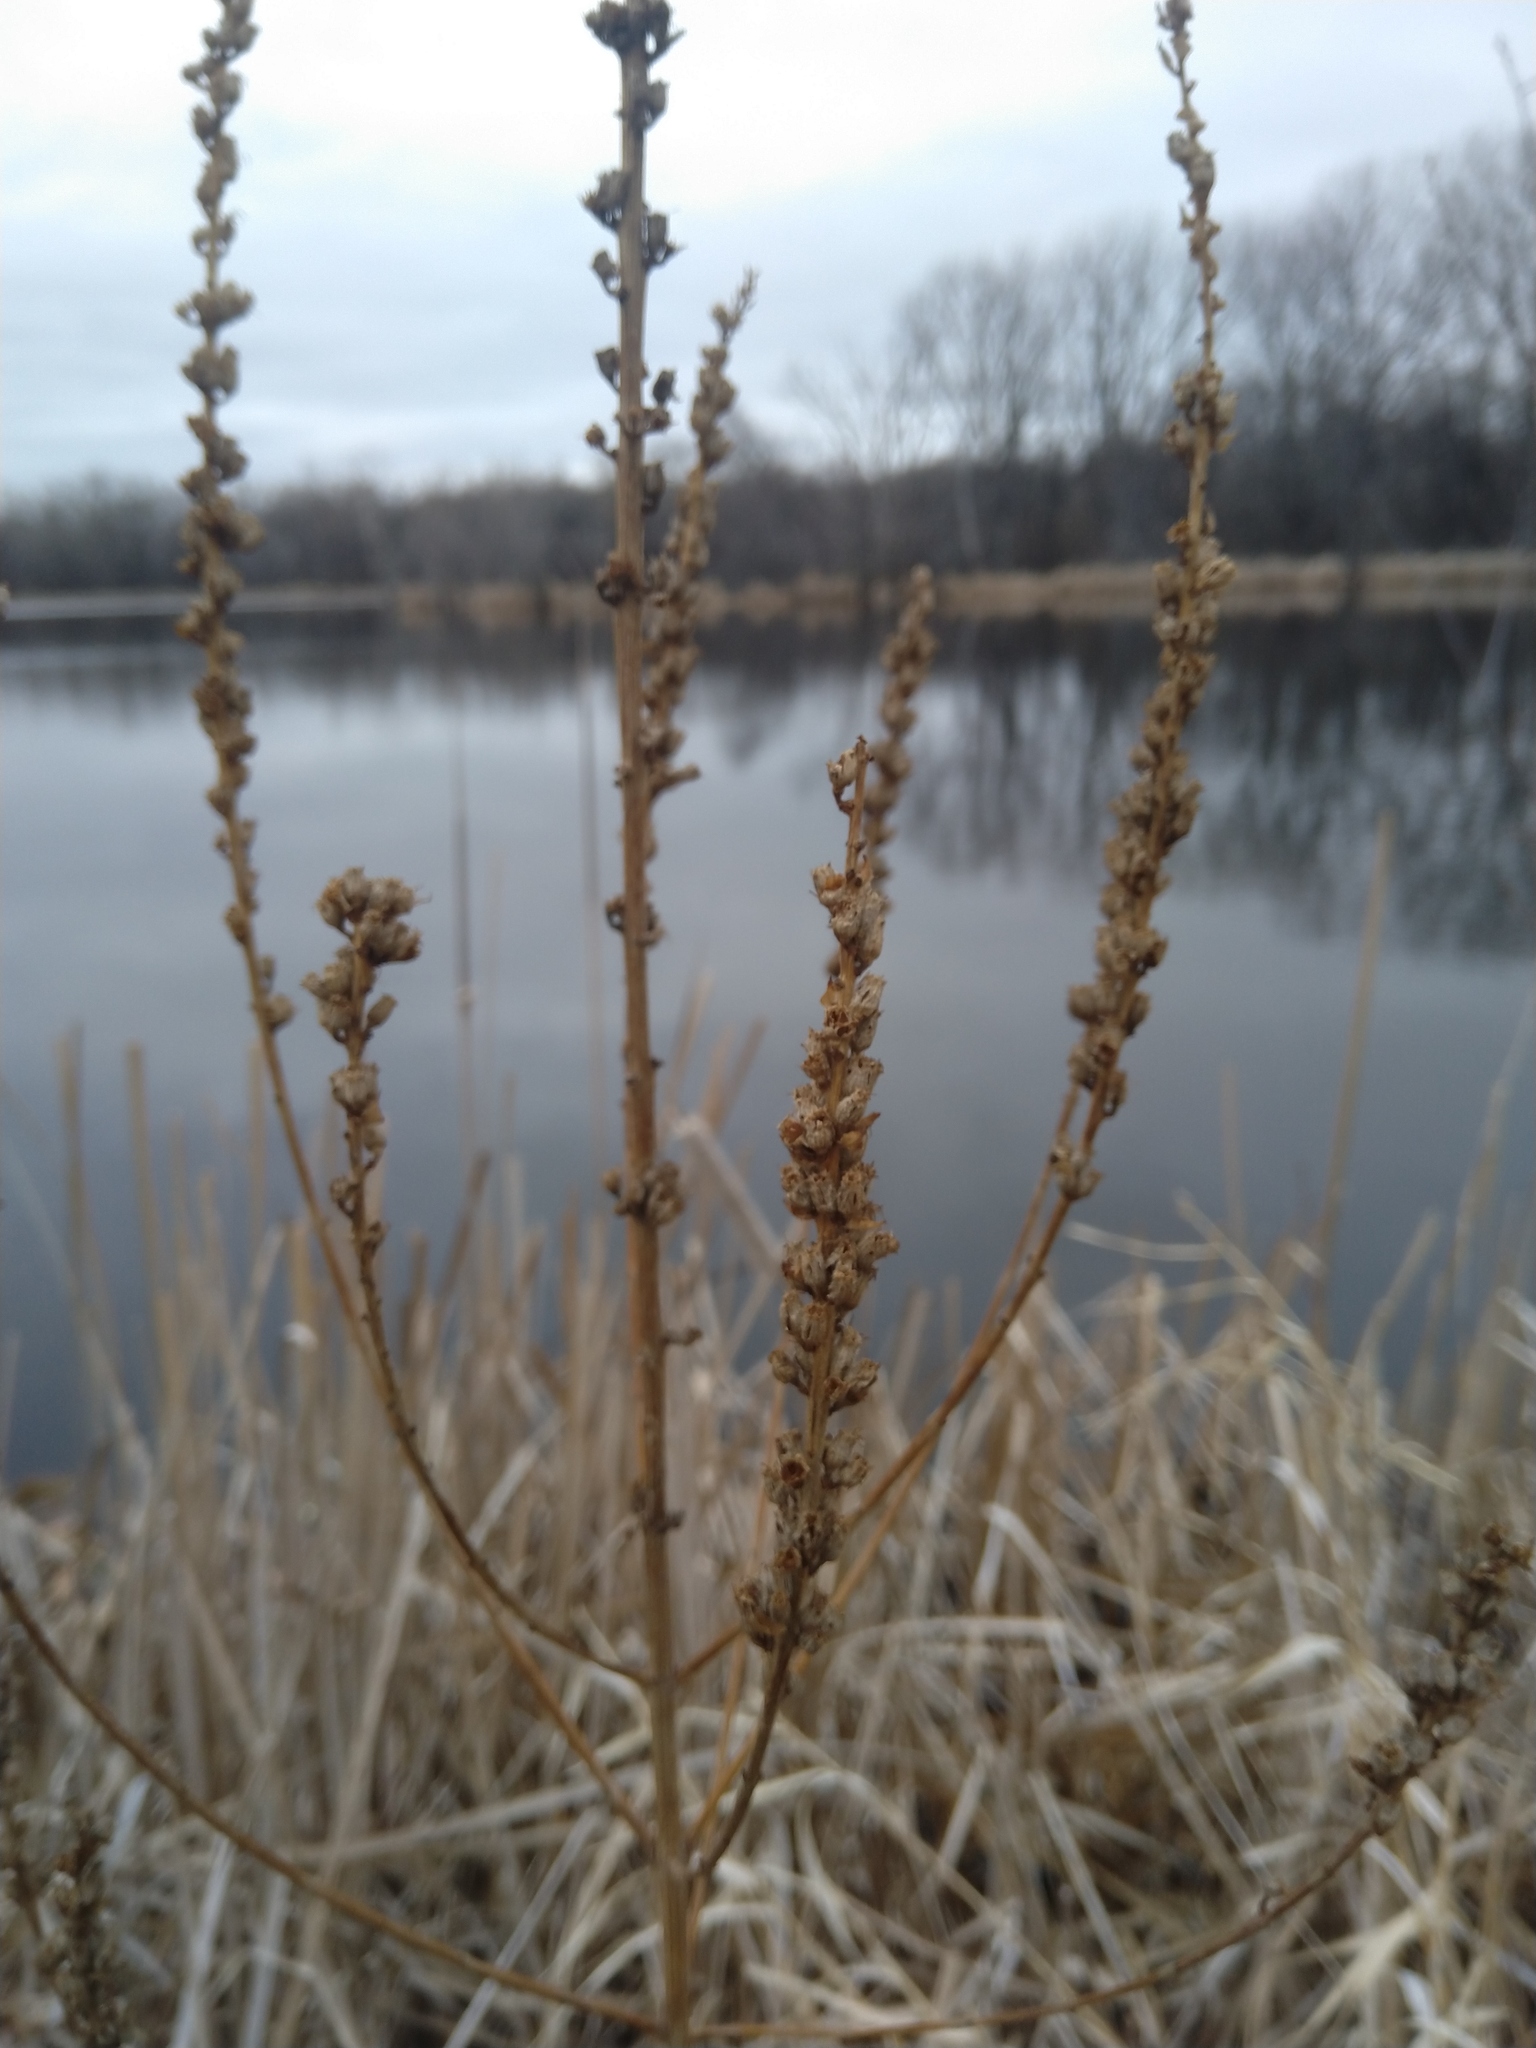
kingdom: Plantae
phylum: Tracheophyta
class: Magnoliopsida
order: Myrtales
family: Lythraceae
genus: Lythrum
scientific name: Lythrum salicaria
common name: Purple loosestrife
